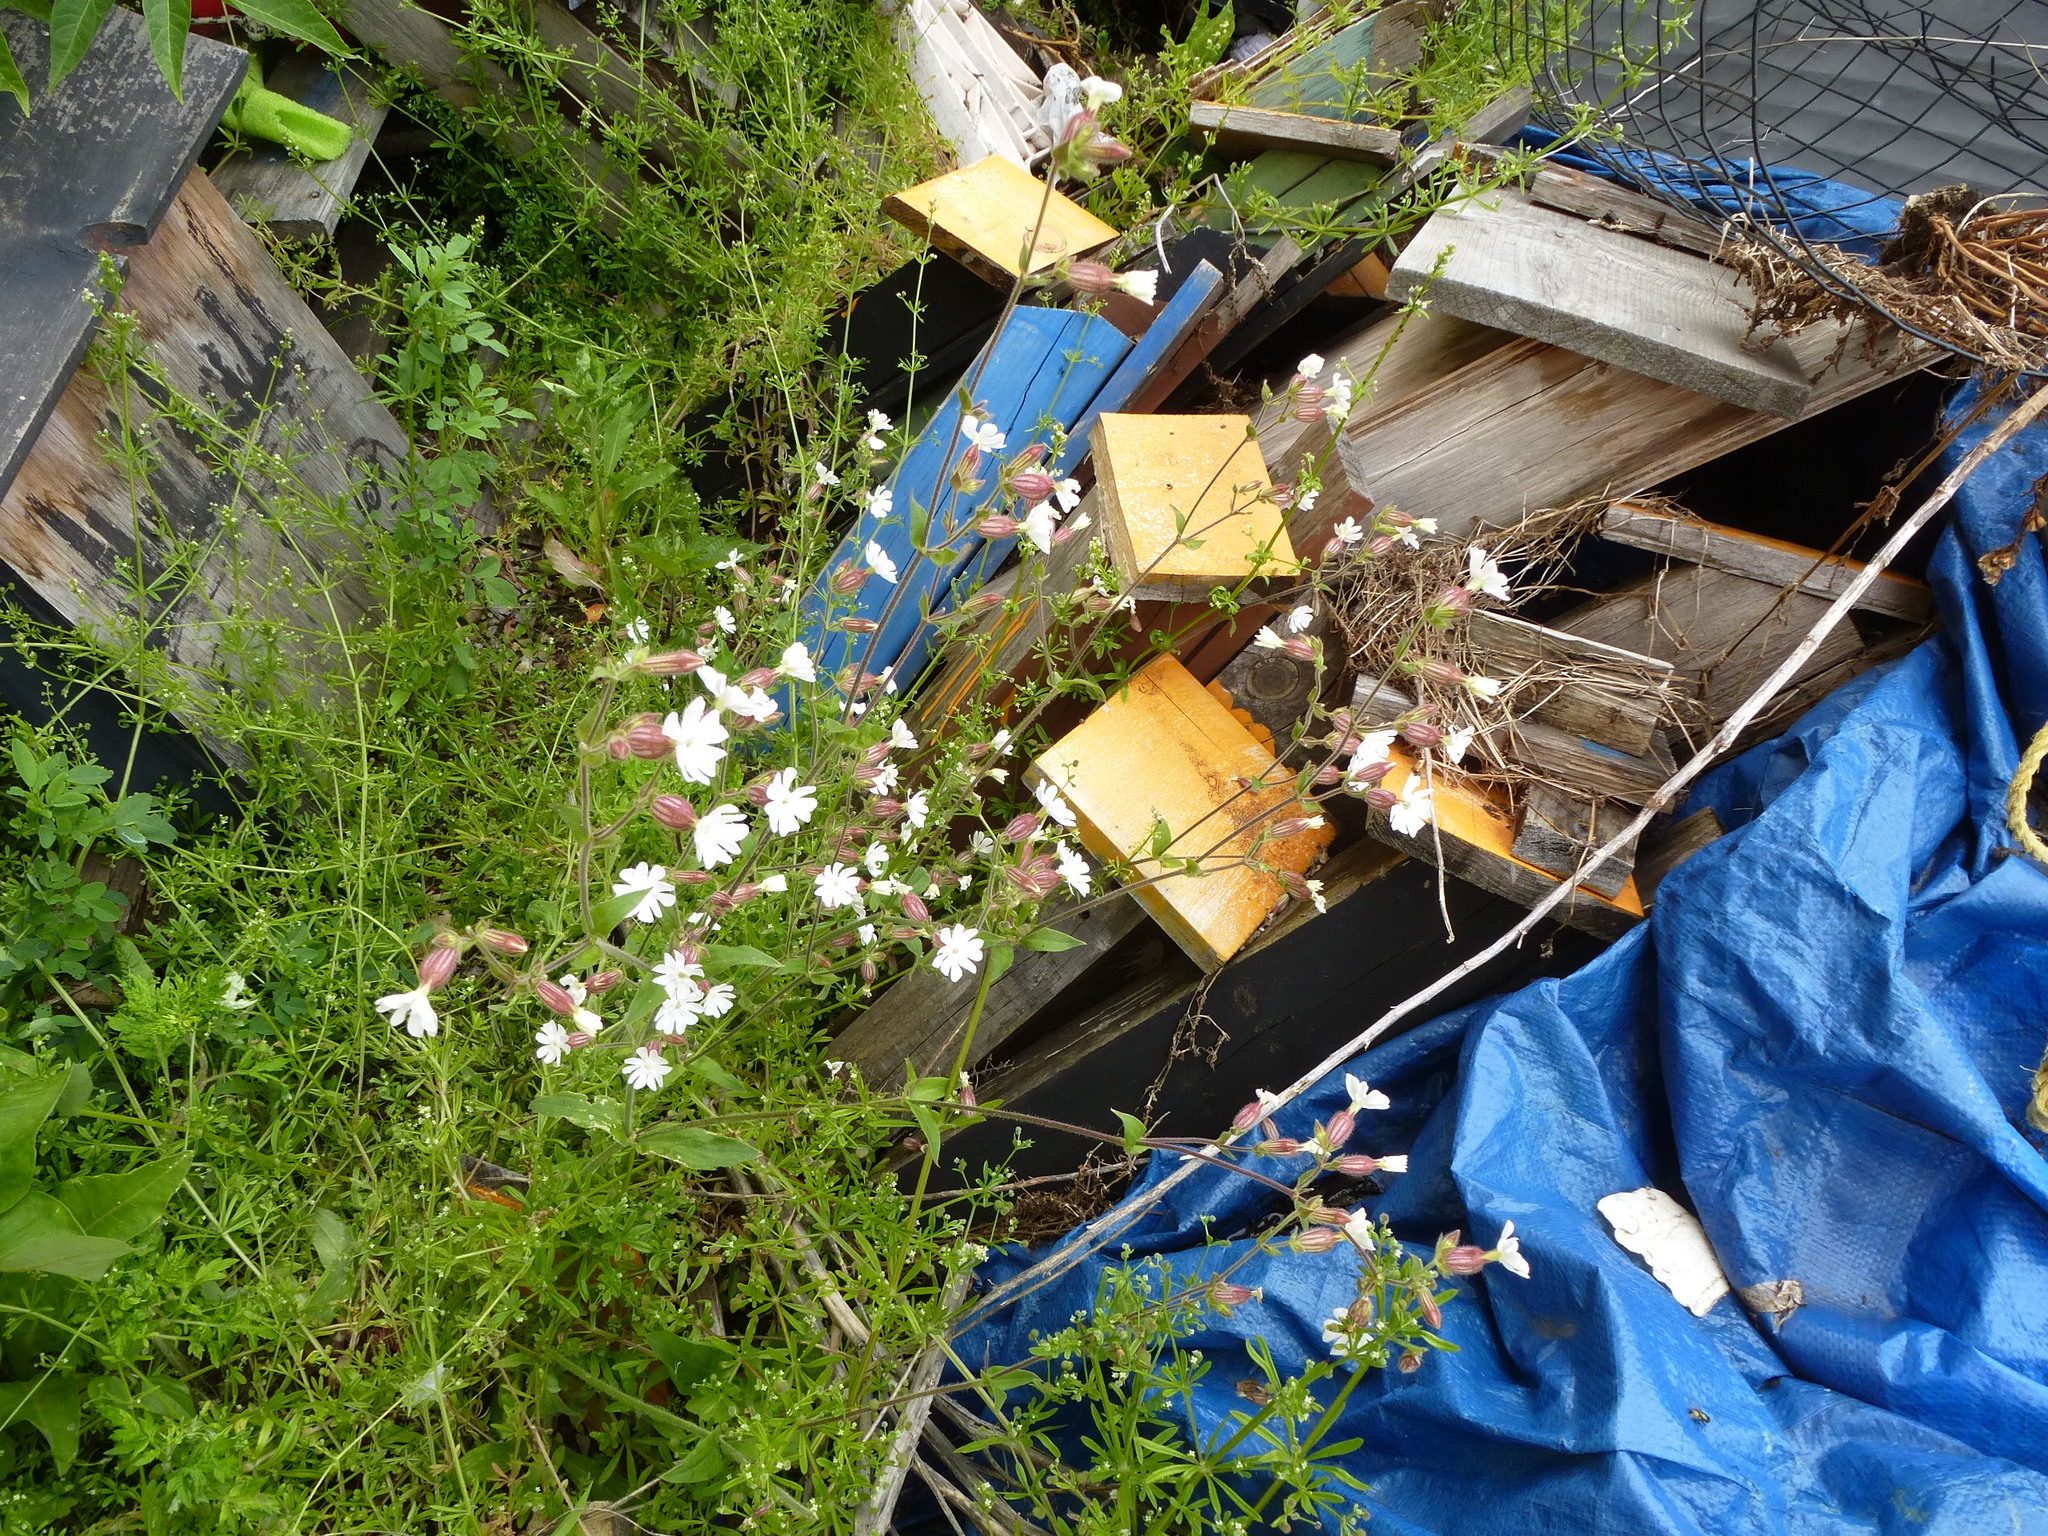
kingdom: Plantae
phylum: Tracheophyta
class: Magnoliopsida
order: Caryophyllales
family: Caryophyllaceae
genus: Silene
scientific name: Silene latifolia
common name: White campion
